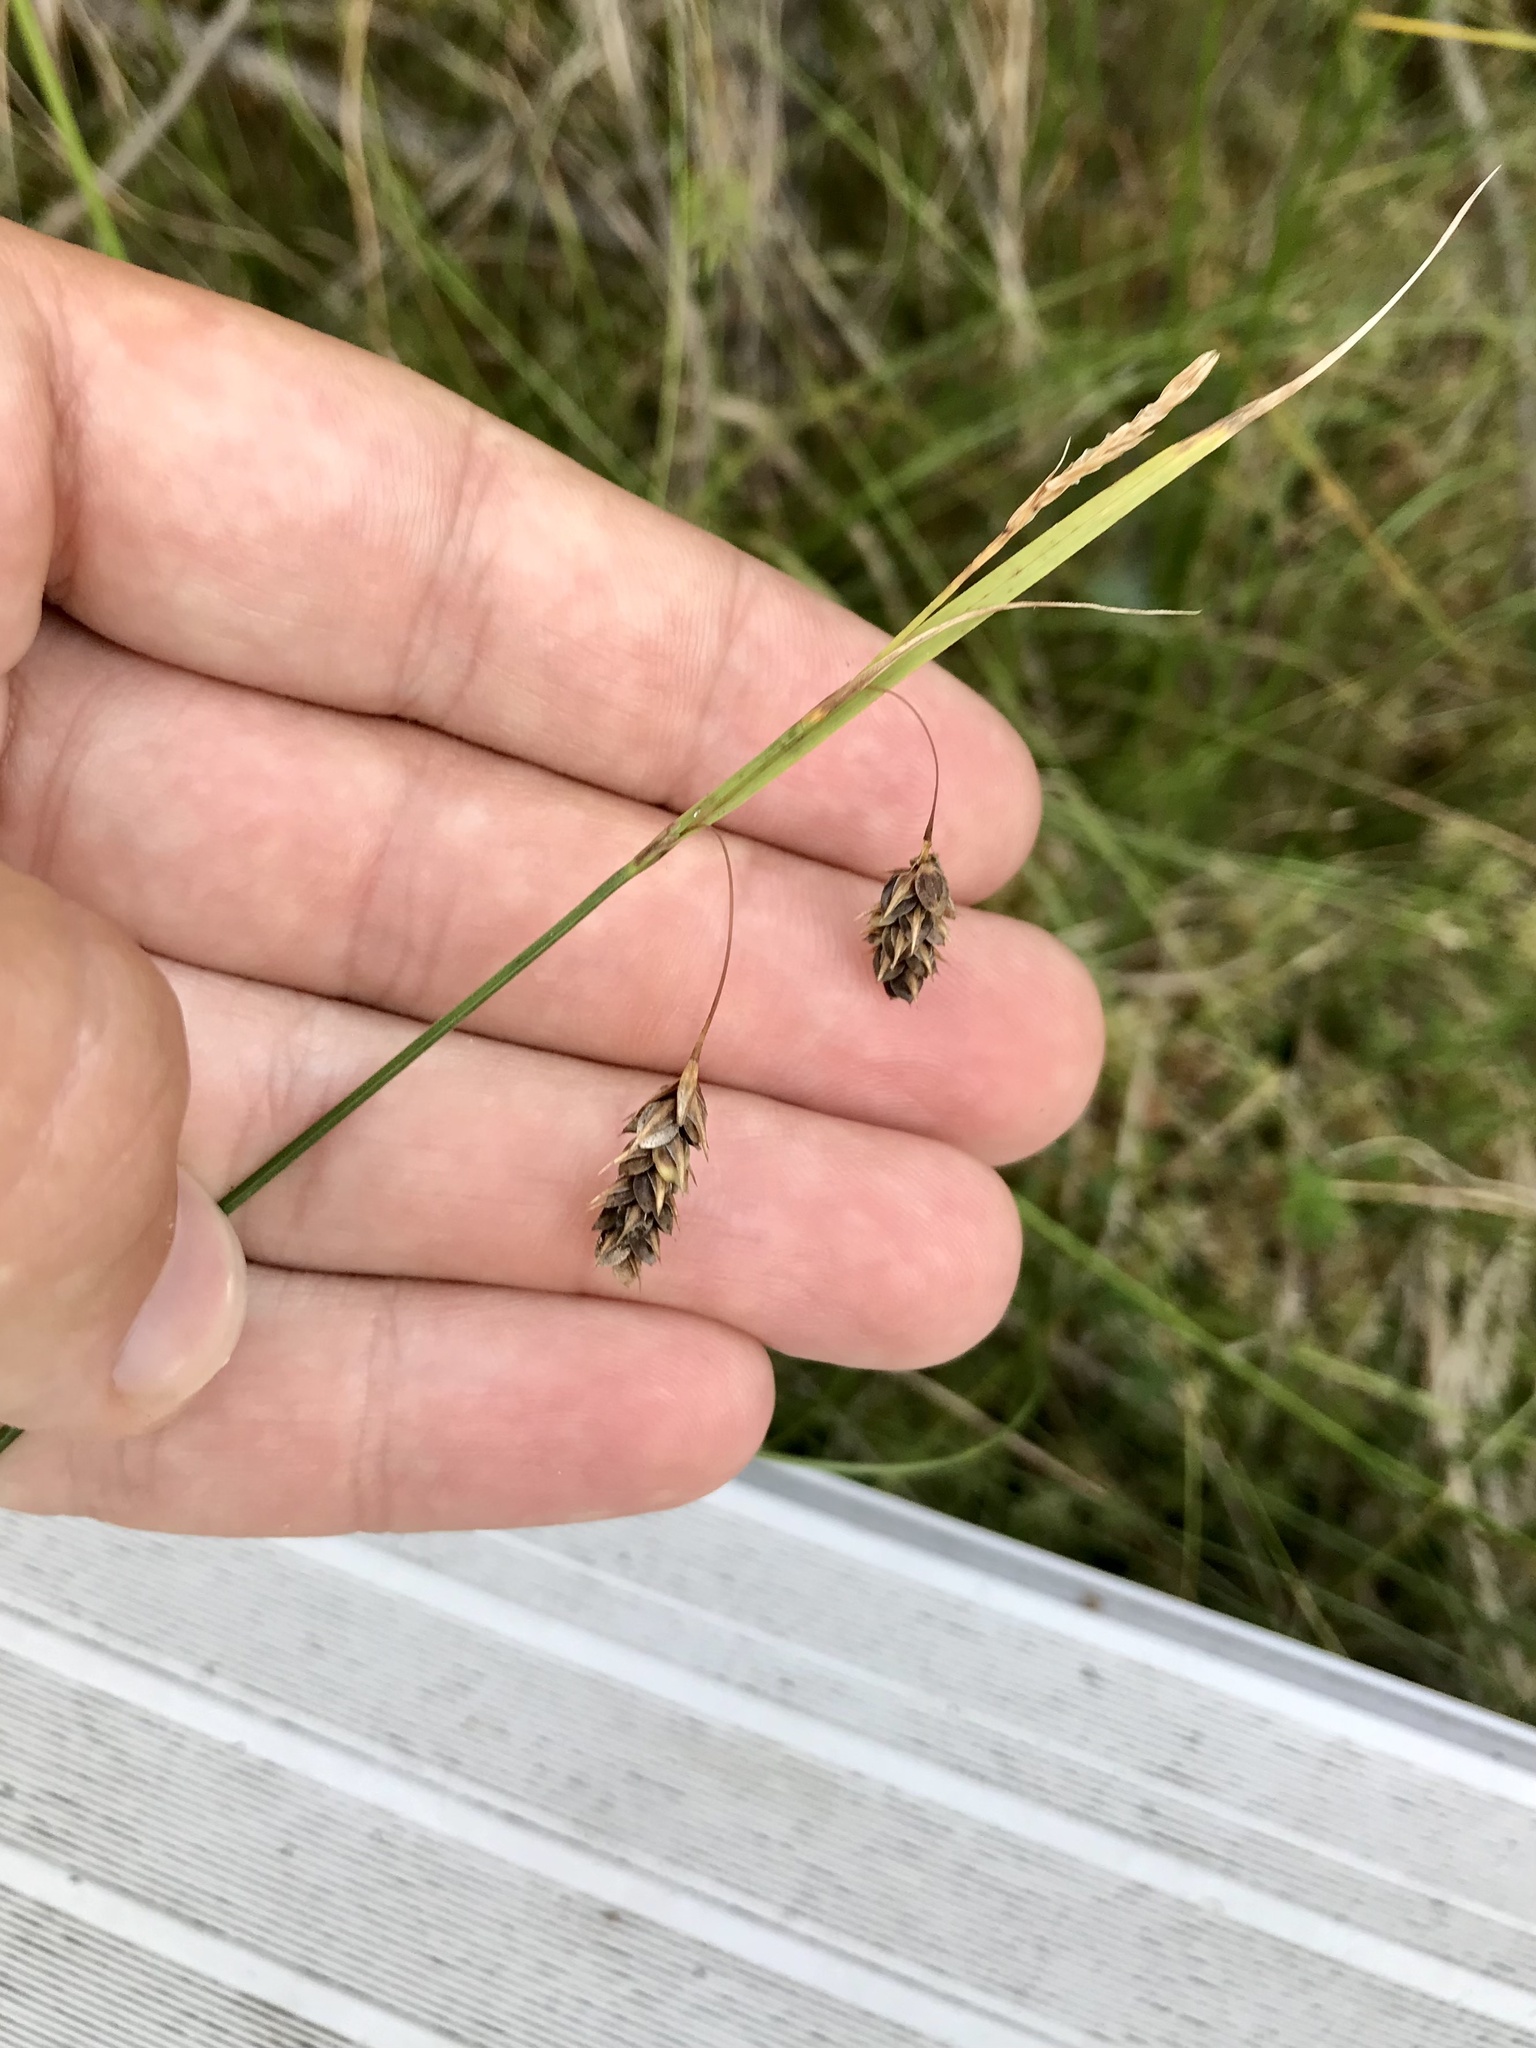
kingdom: Plantae
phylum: Tracheophyta
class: Liliopsida
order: Poales
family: Cyperaceae
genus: Carex
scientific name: Carex magellanica
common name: Bog sedge
